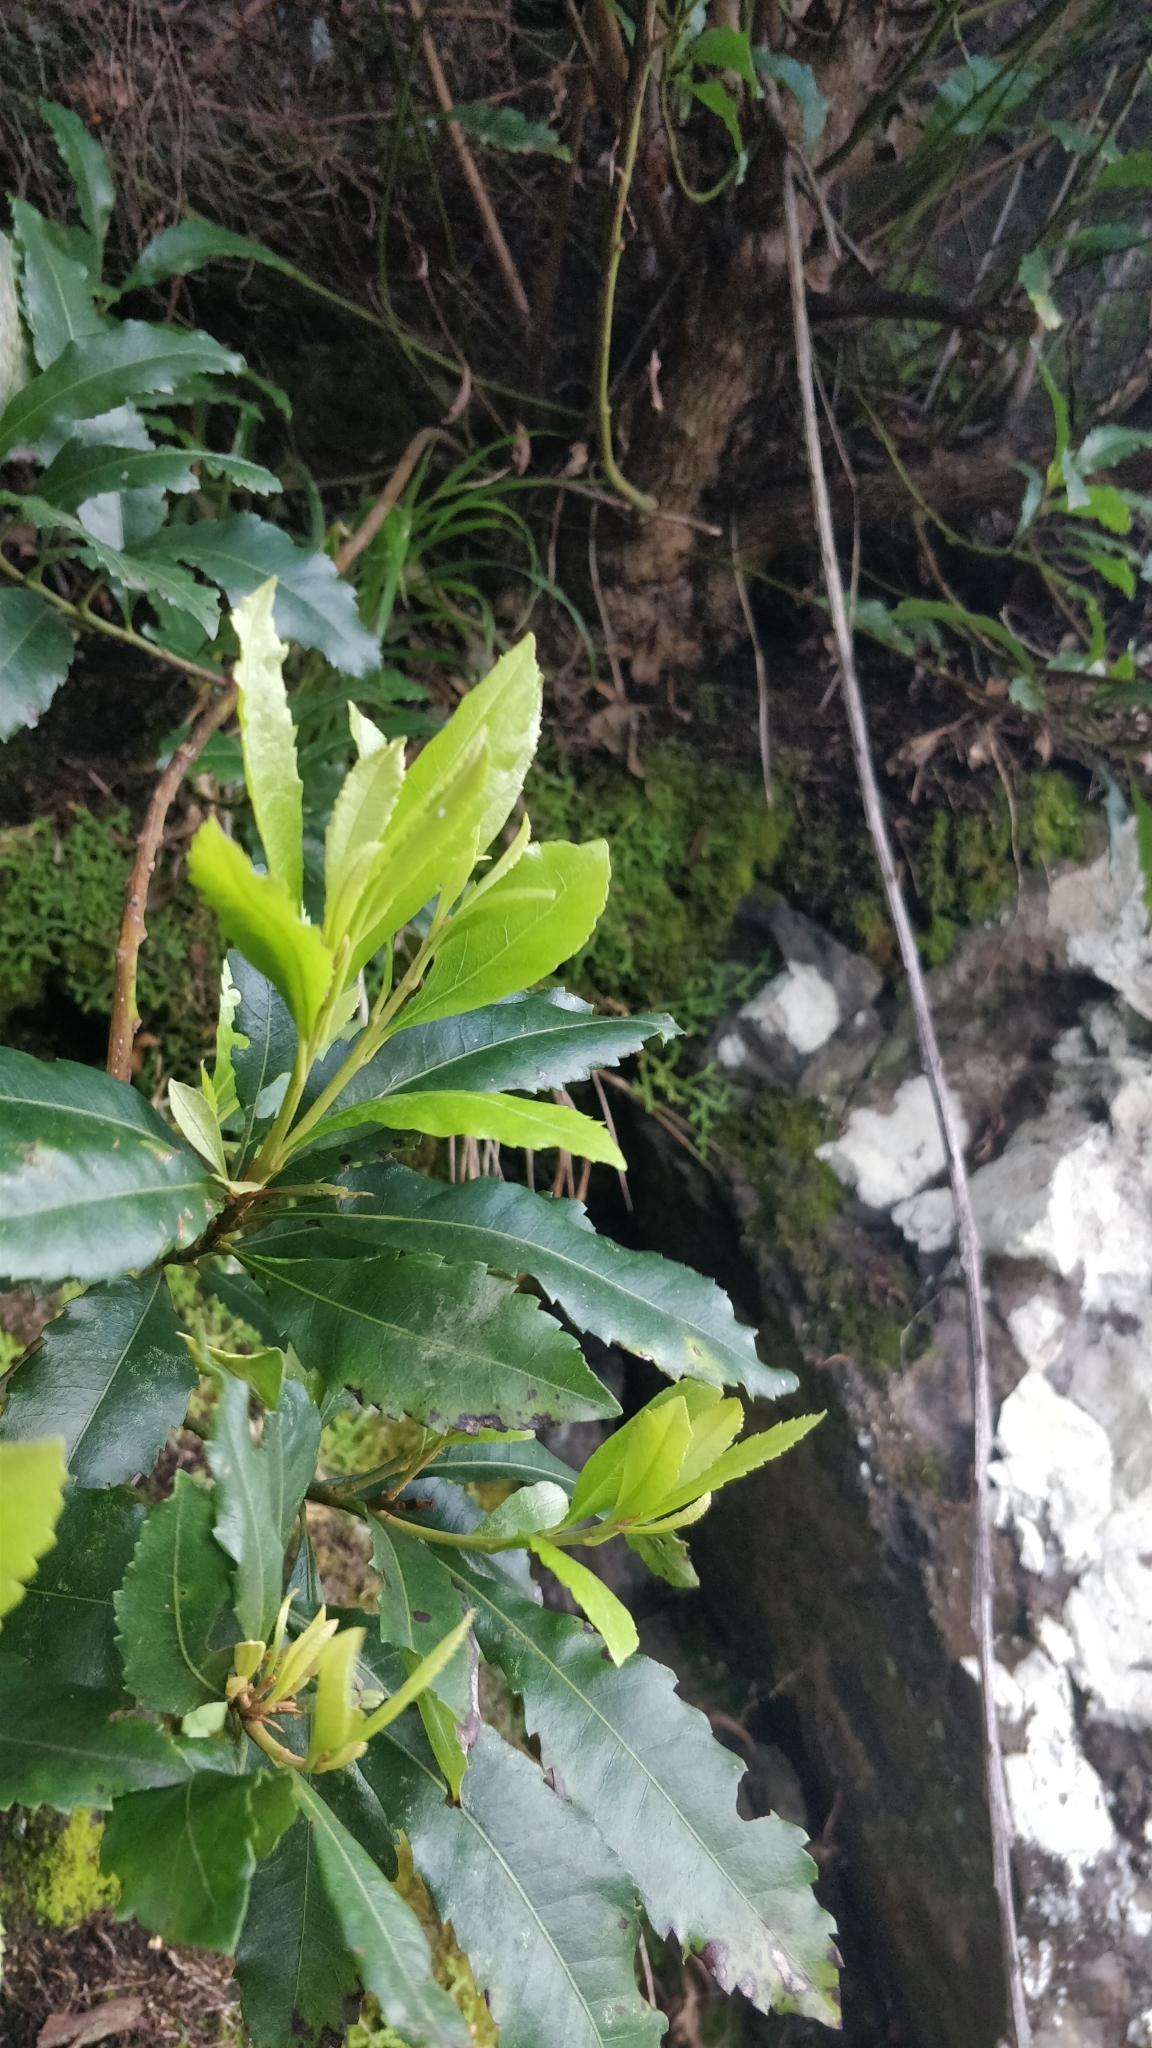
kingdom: Plantae
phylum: Tracheophyta
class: Magnoliopsida
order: Fagales
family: Myricaceae
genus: Morella
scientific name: Morella faya
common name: Firetree
